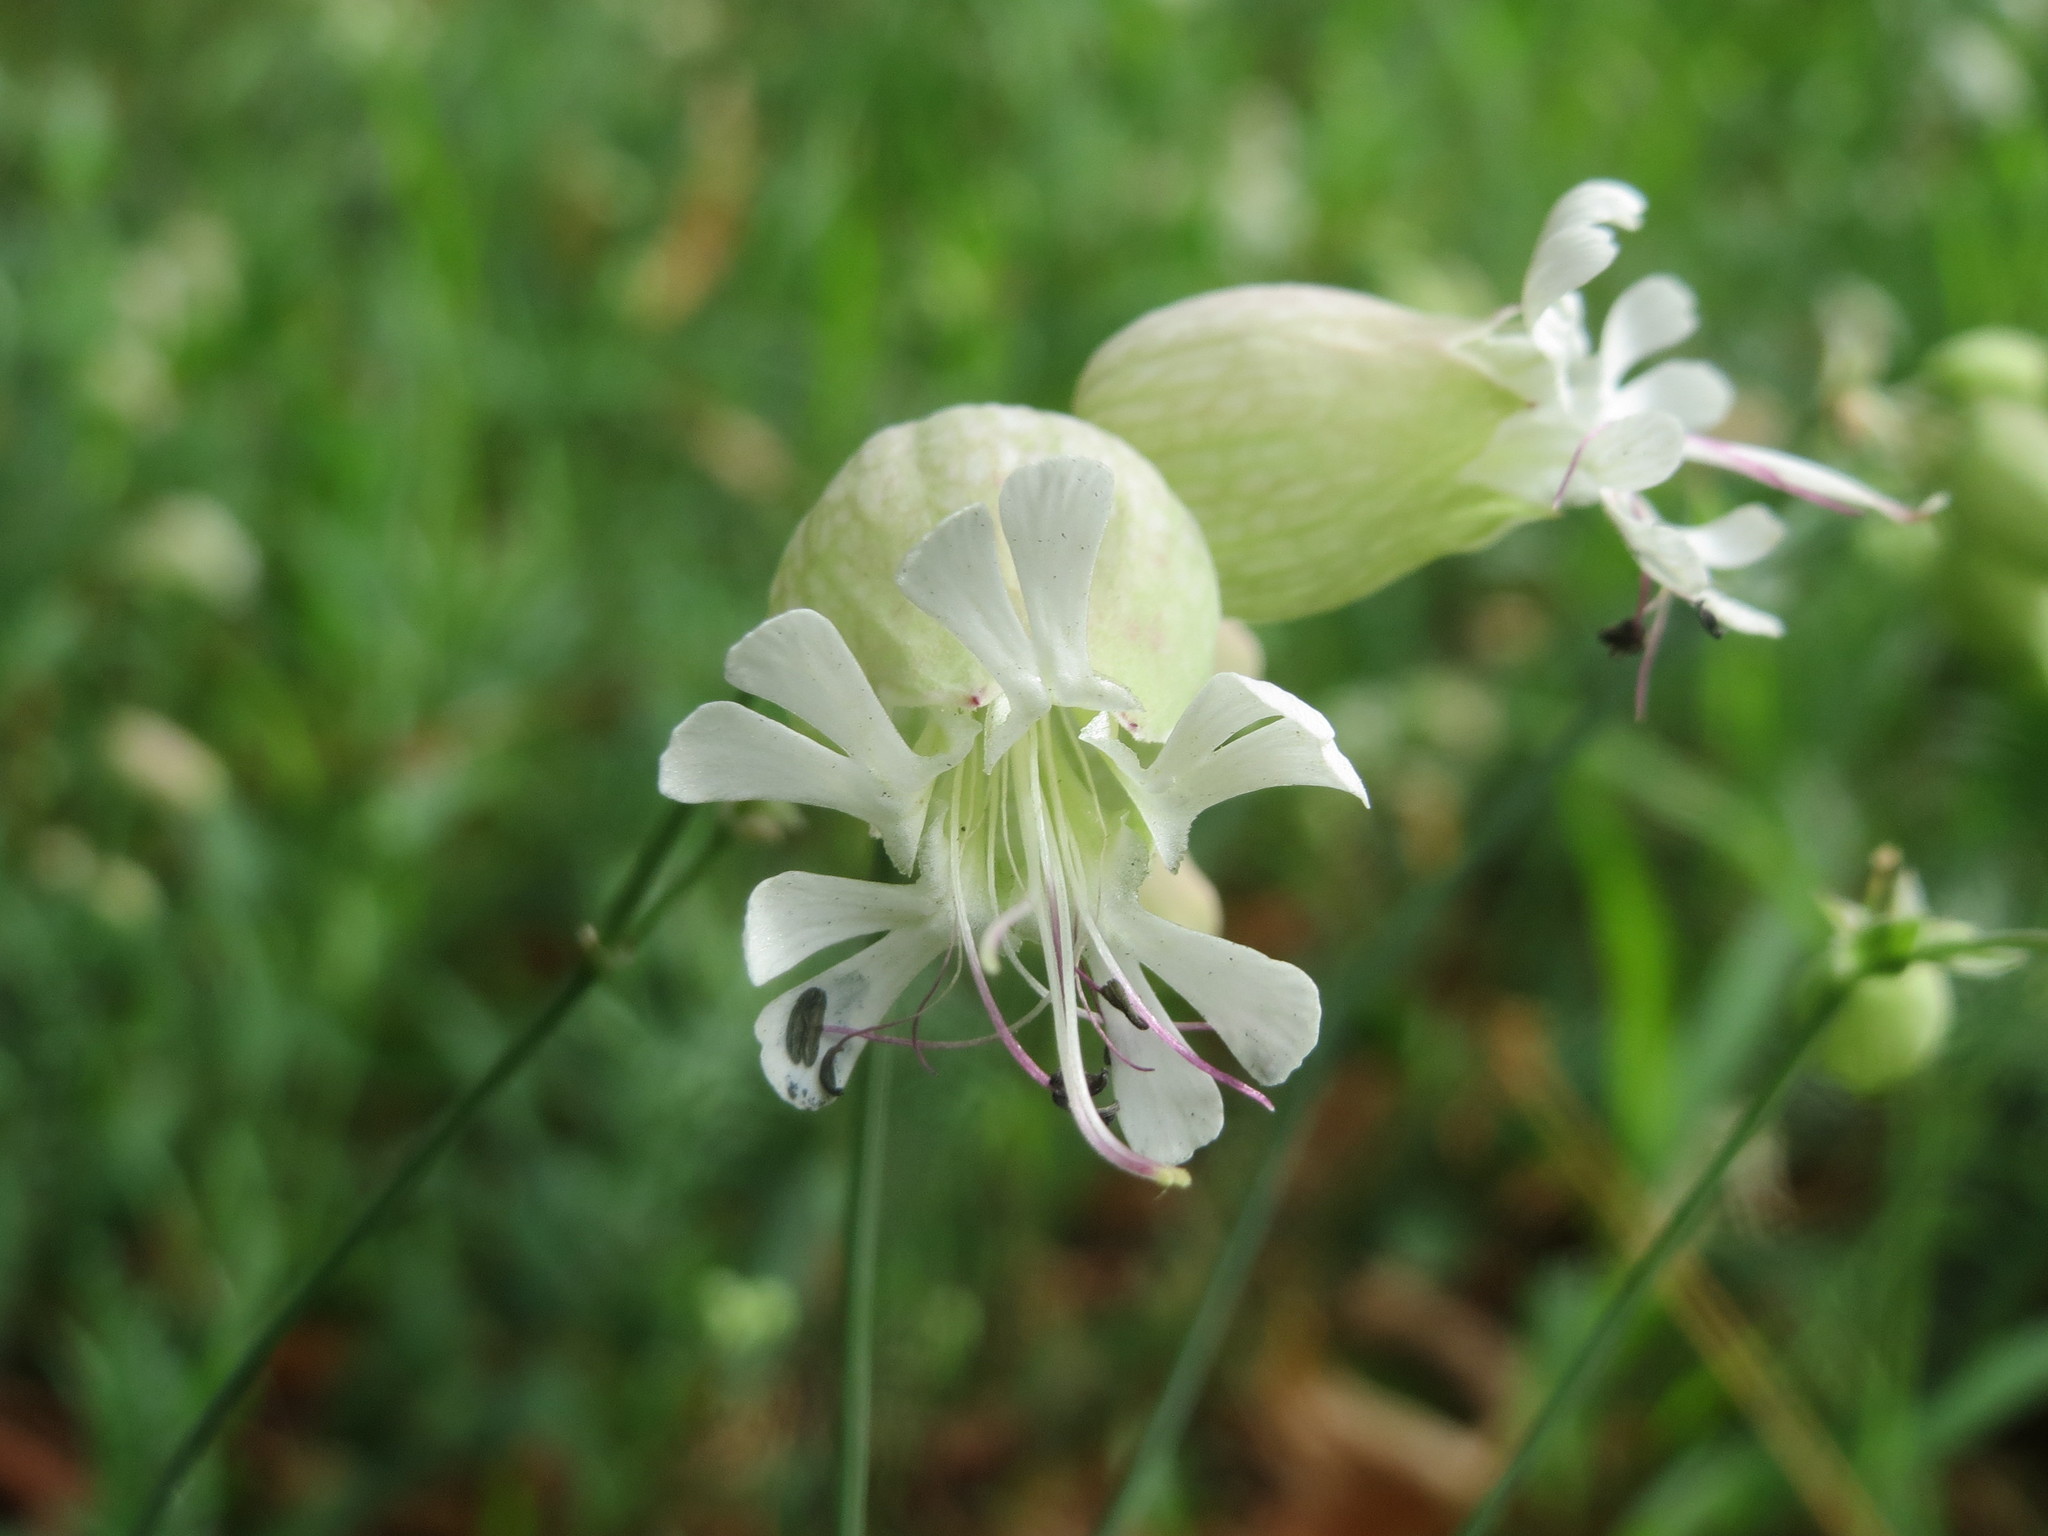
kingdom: Plantae
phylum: Tracheophyta
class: Magnoliopsida
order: Caryophyllales
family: Caryophyllaceae
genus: Silene
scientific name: Silene vulgaris
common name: Bladder campion
